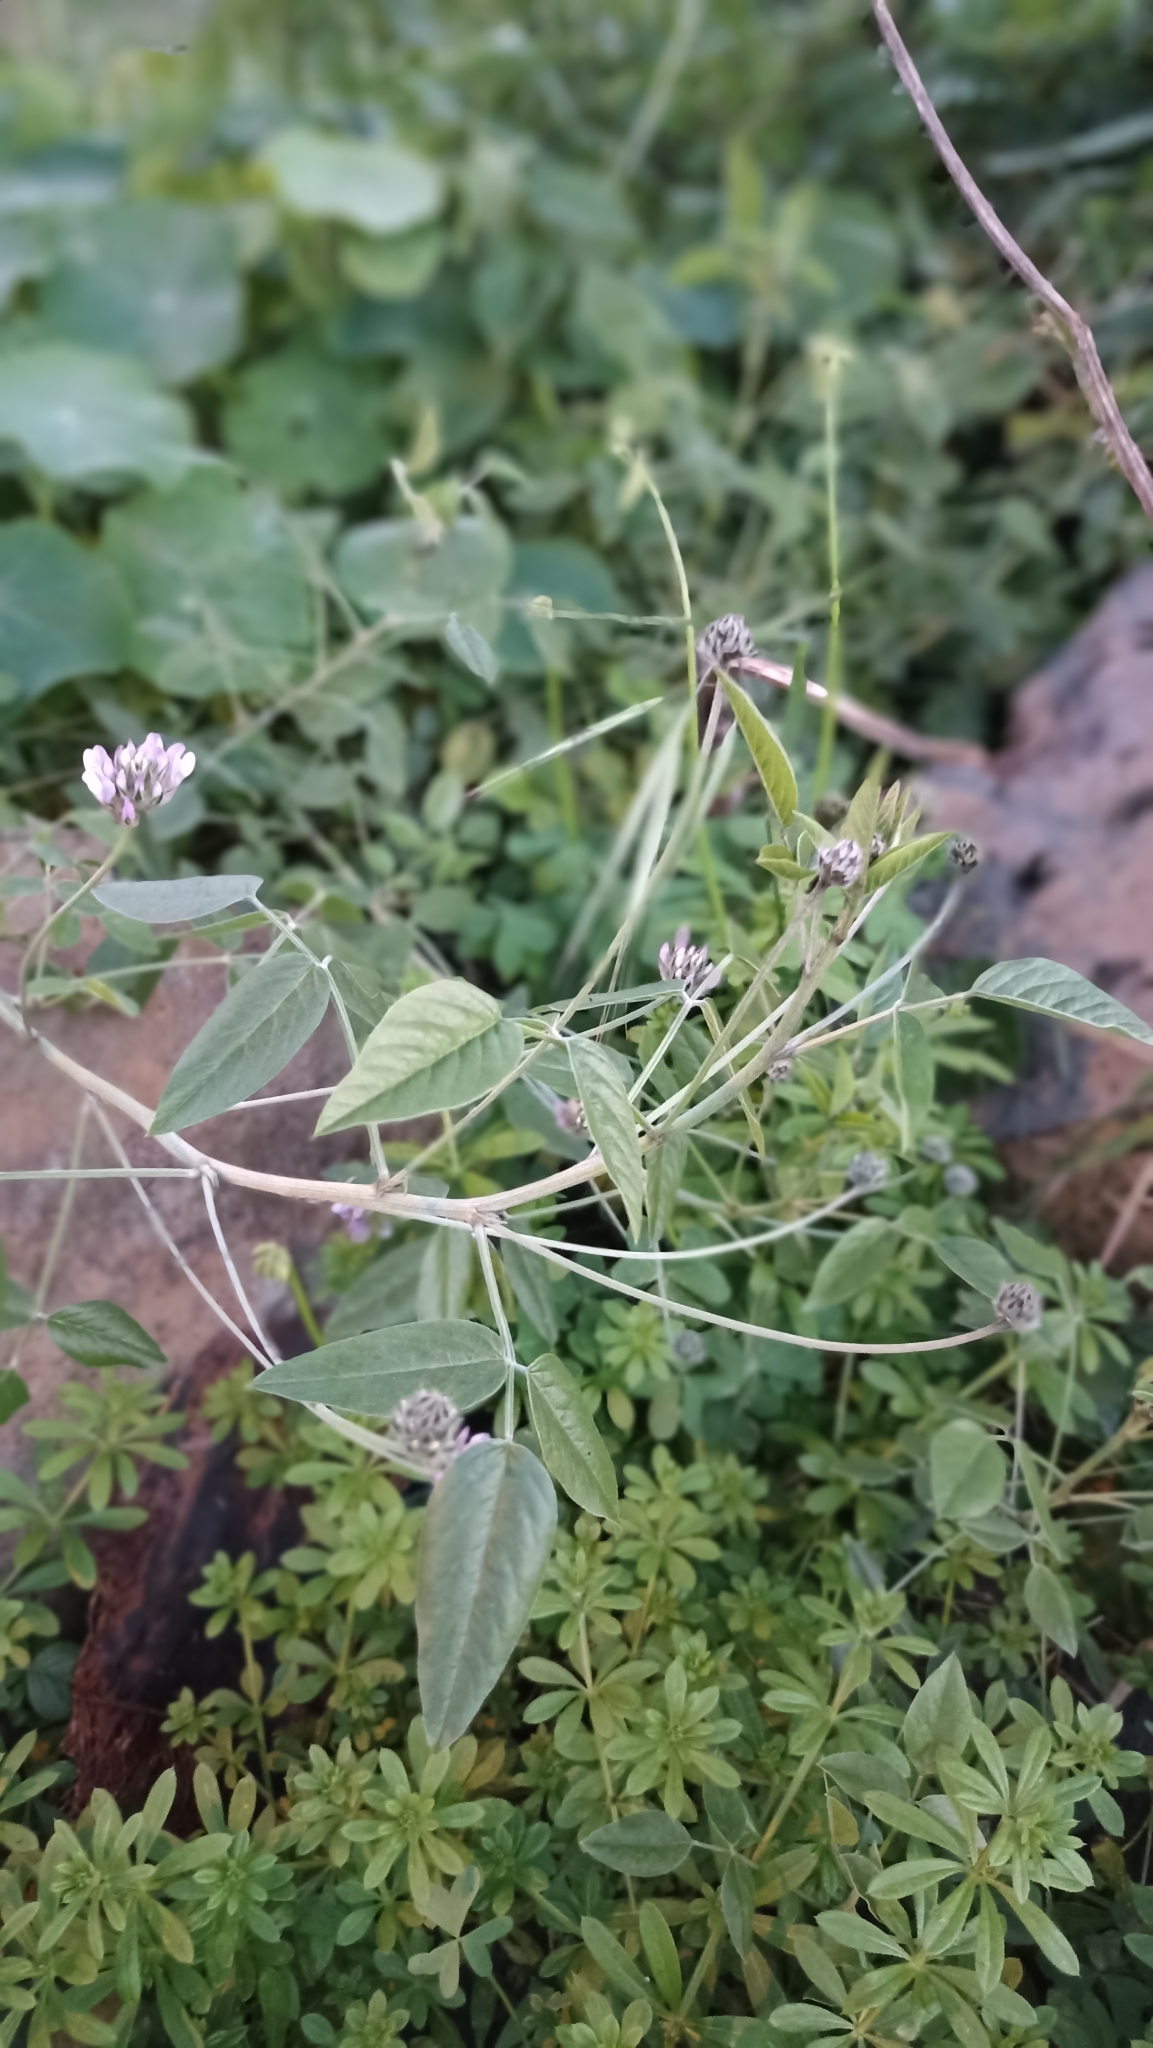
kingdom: Plantae
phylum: Tracheophyta
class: Magnoliopsida
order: Fabales
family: Fabaceae
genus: Bituminaria
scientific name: Bituminaria bituminosa
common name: Arabian pea
